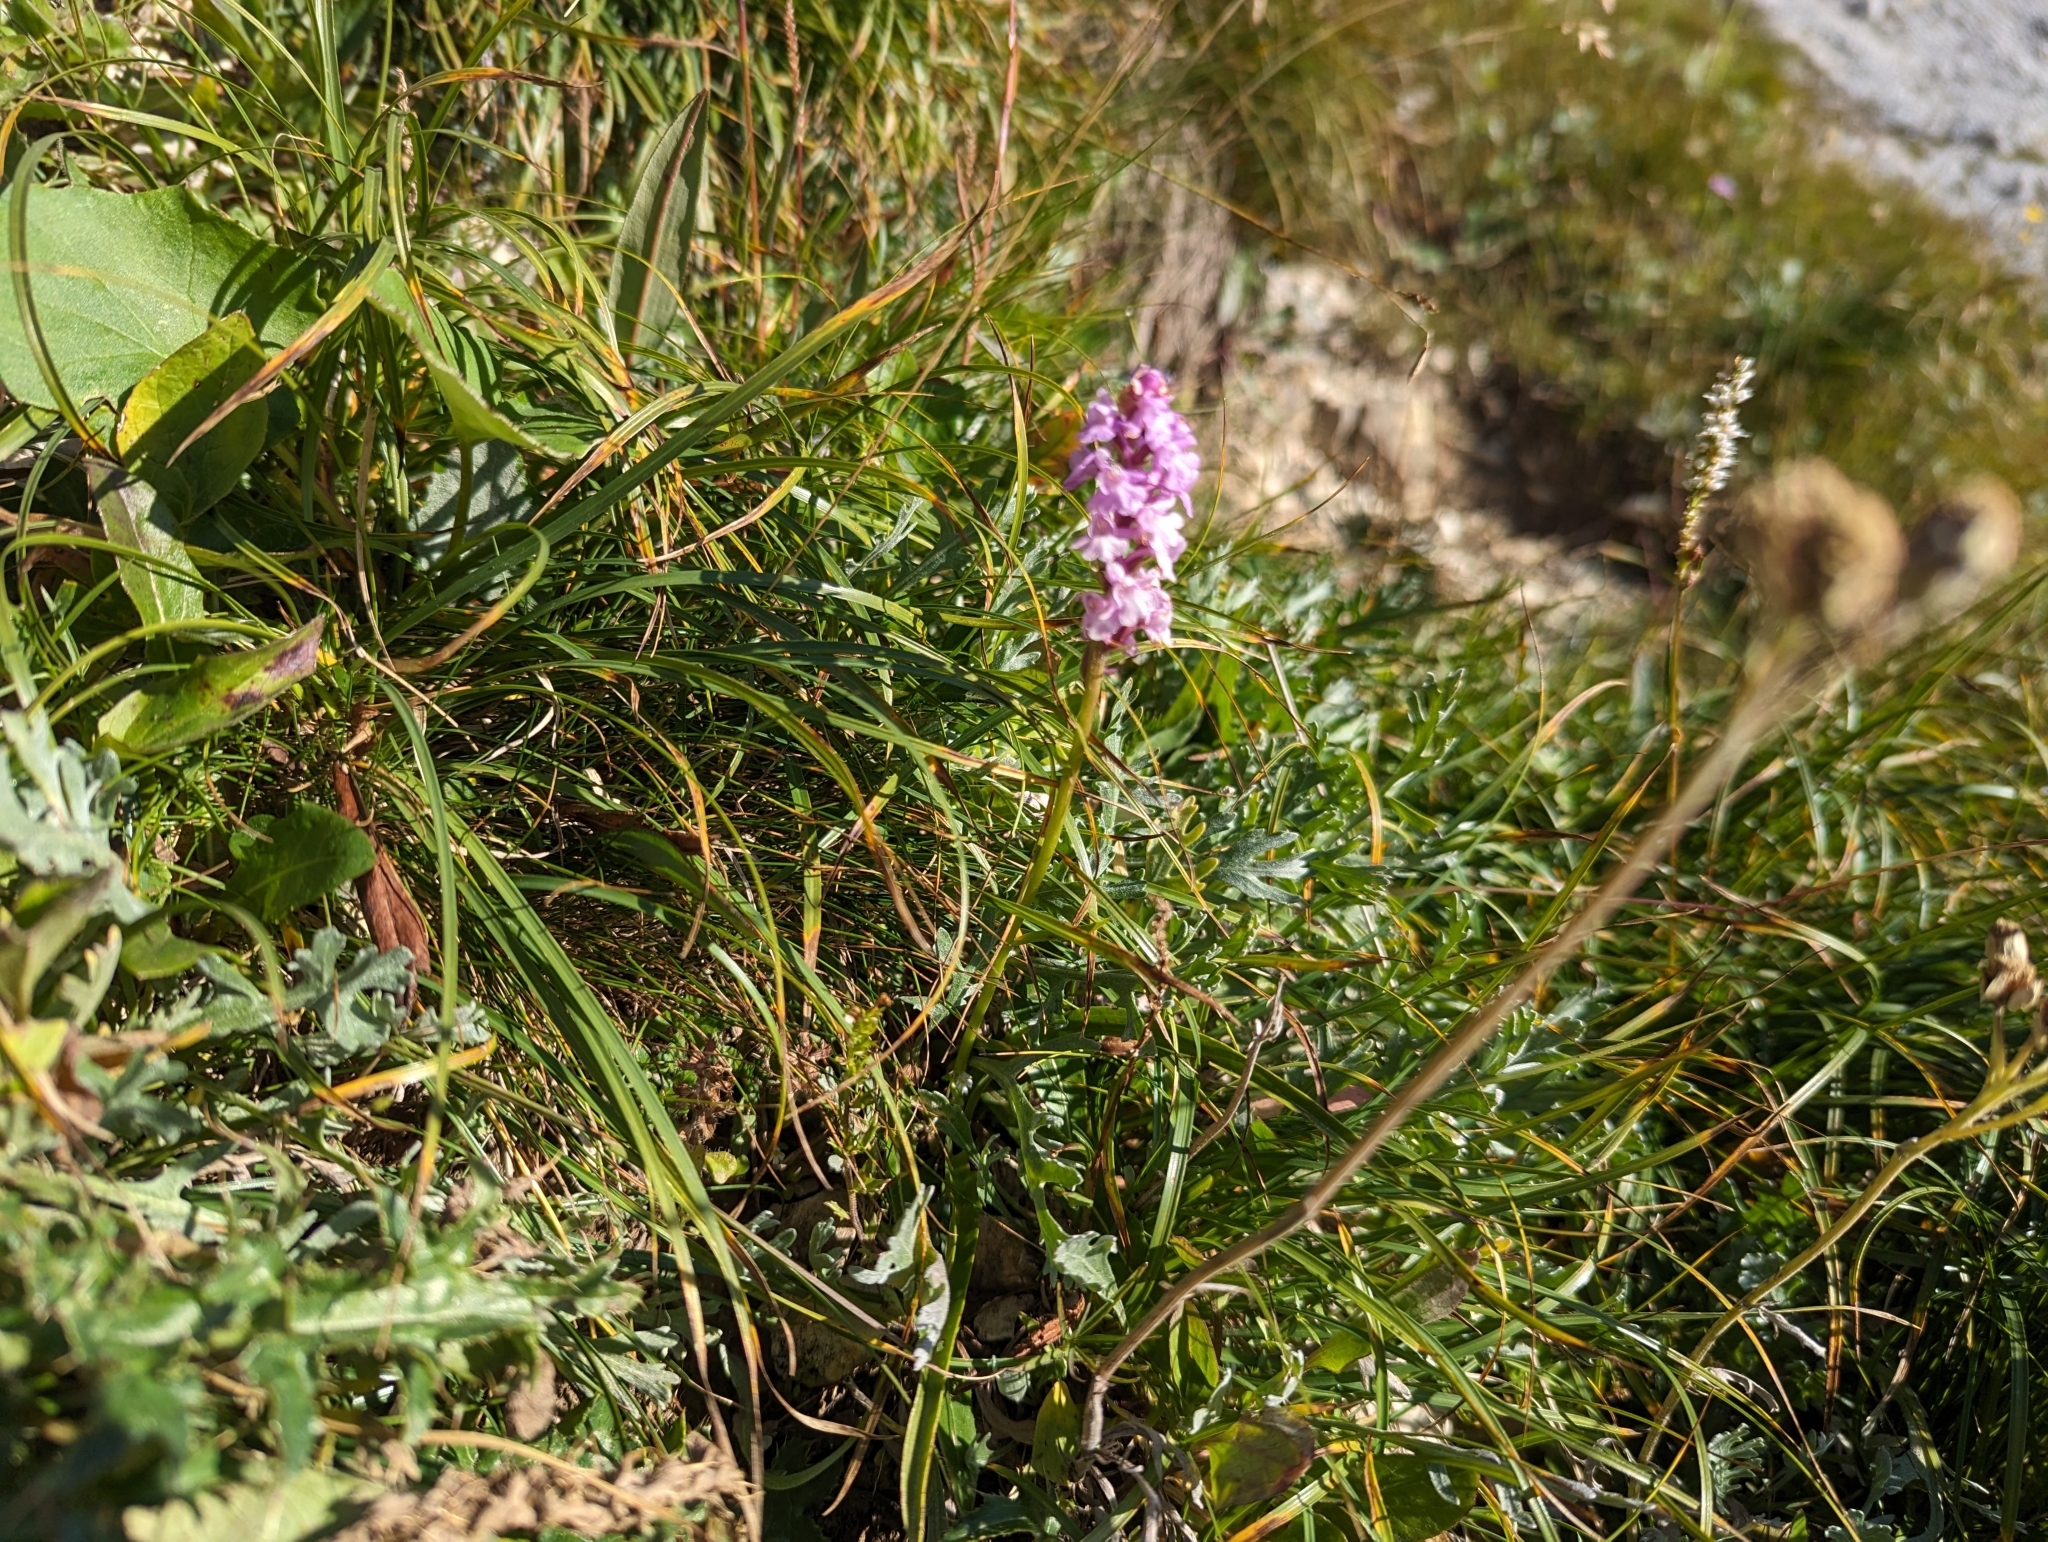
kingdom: Plantae
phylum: Tracheophyta
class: Liliopsida
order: Asparagales
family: Orchidaceae
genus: Gymnadenia
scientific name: Gymnadenia conopsea
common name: Fragrant orchid
